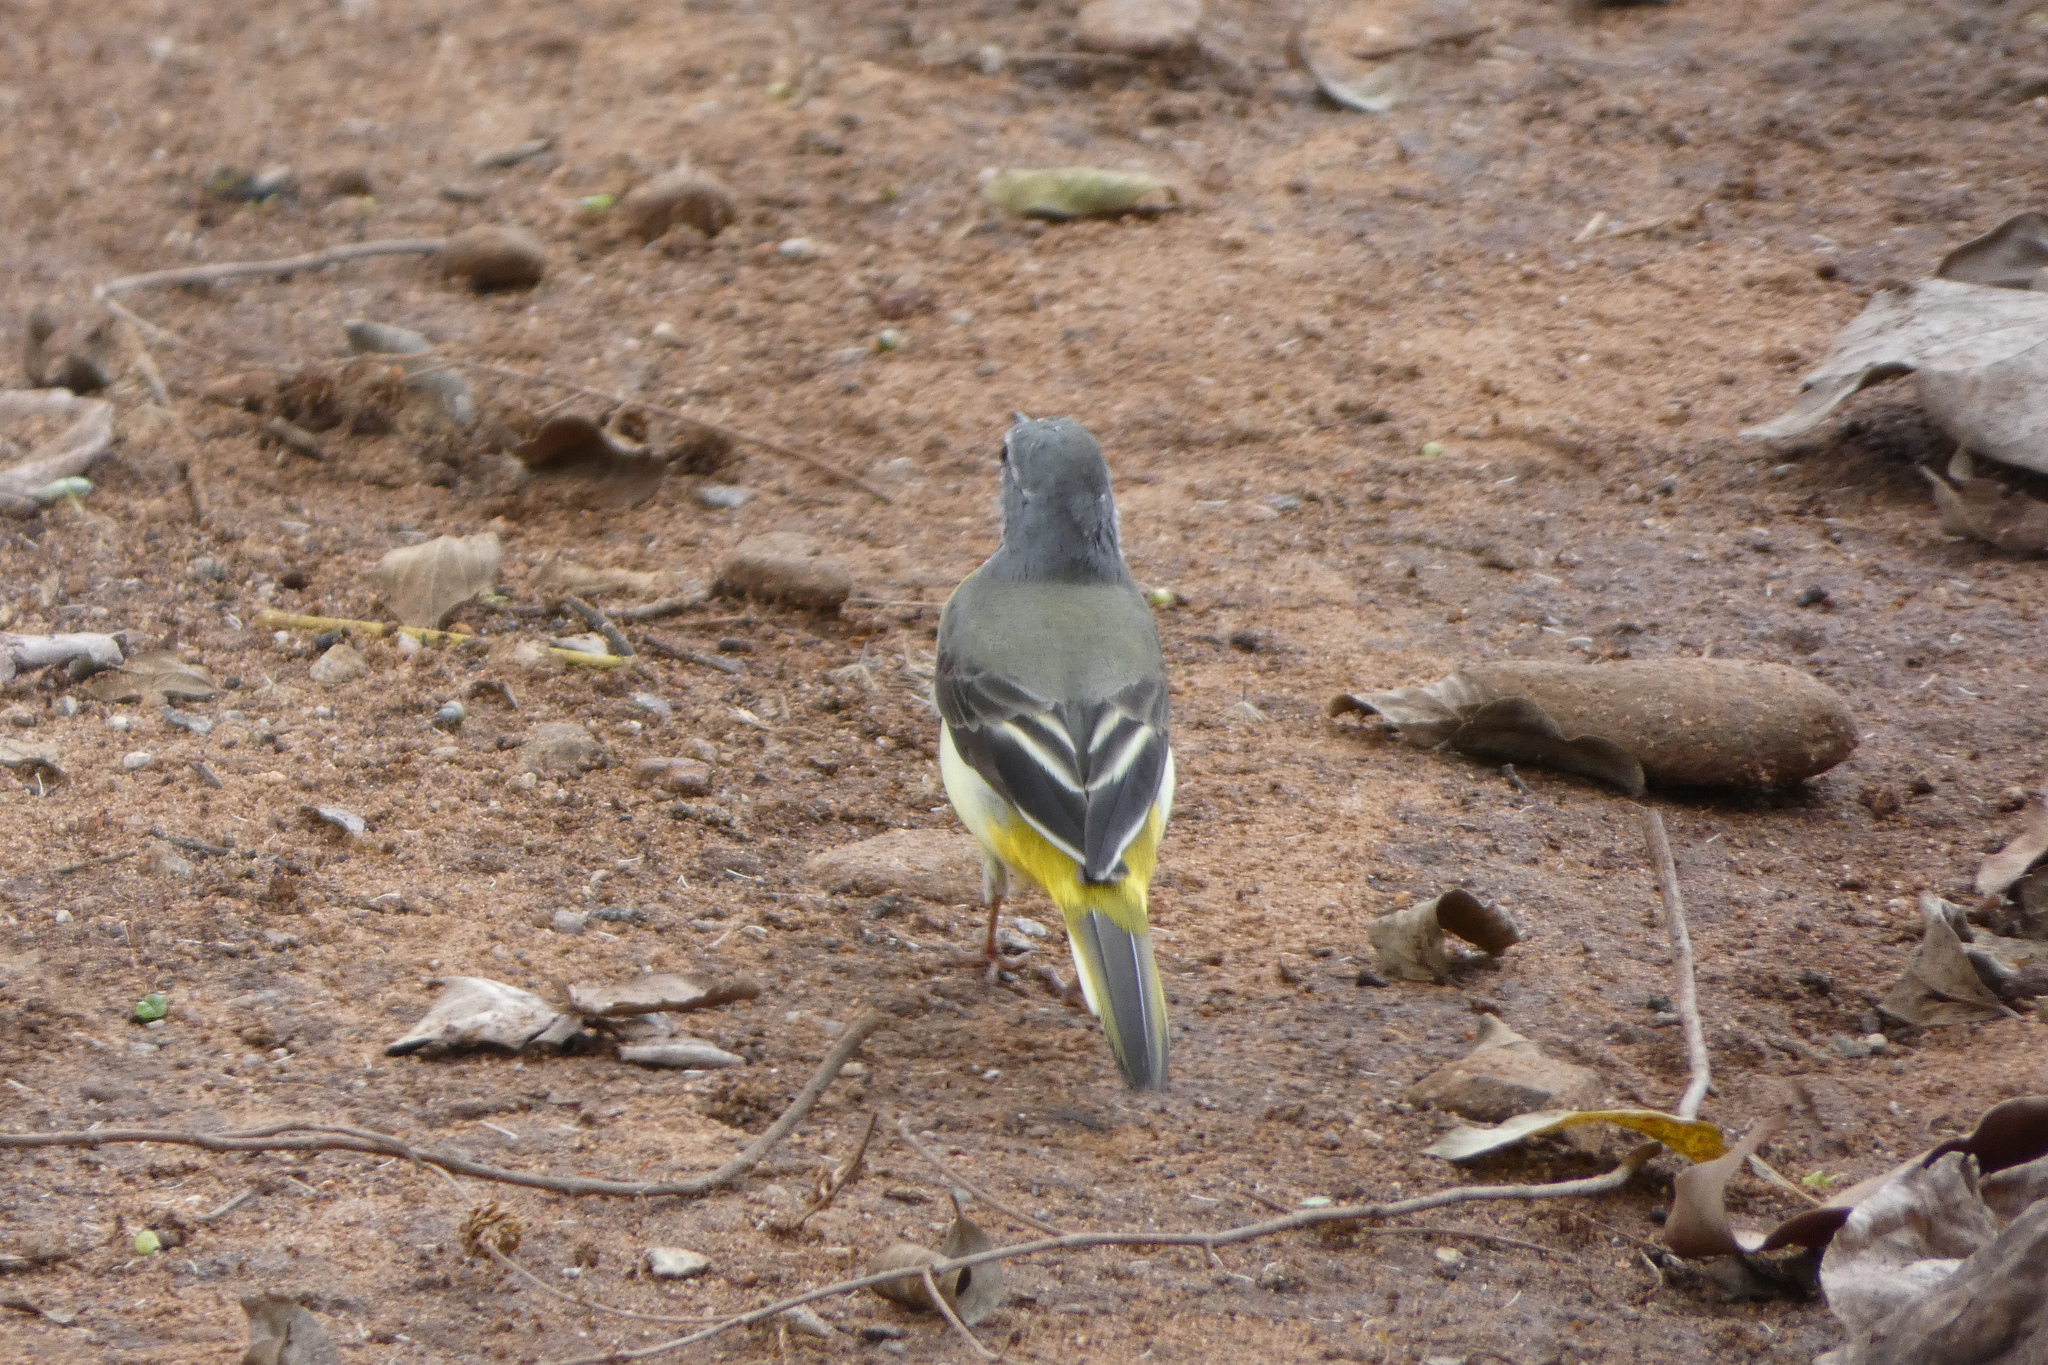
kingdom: Animalia
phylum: Chordata
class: Aves
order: Passeriformes
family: Motacillidae
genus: Motacilla
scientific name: Motacilla cinerea
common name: Grey wagtail
